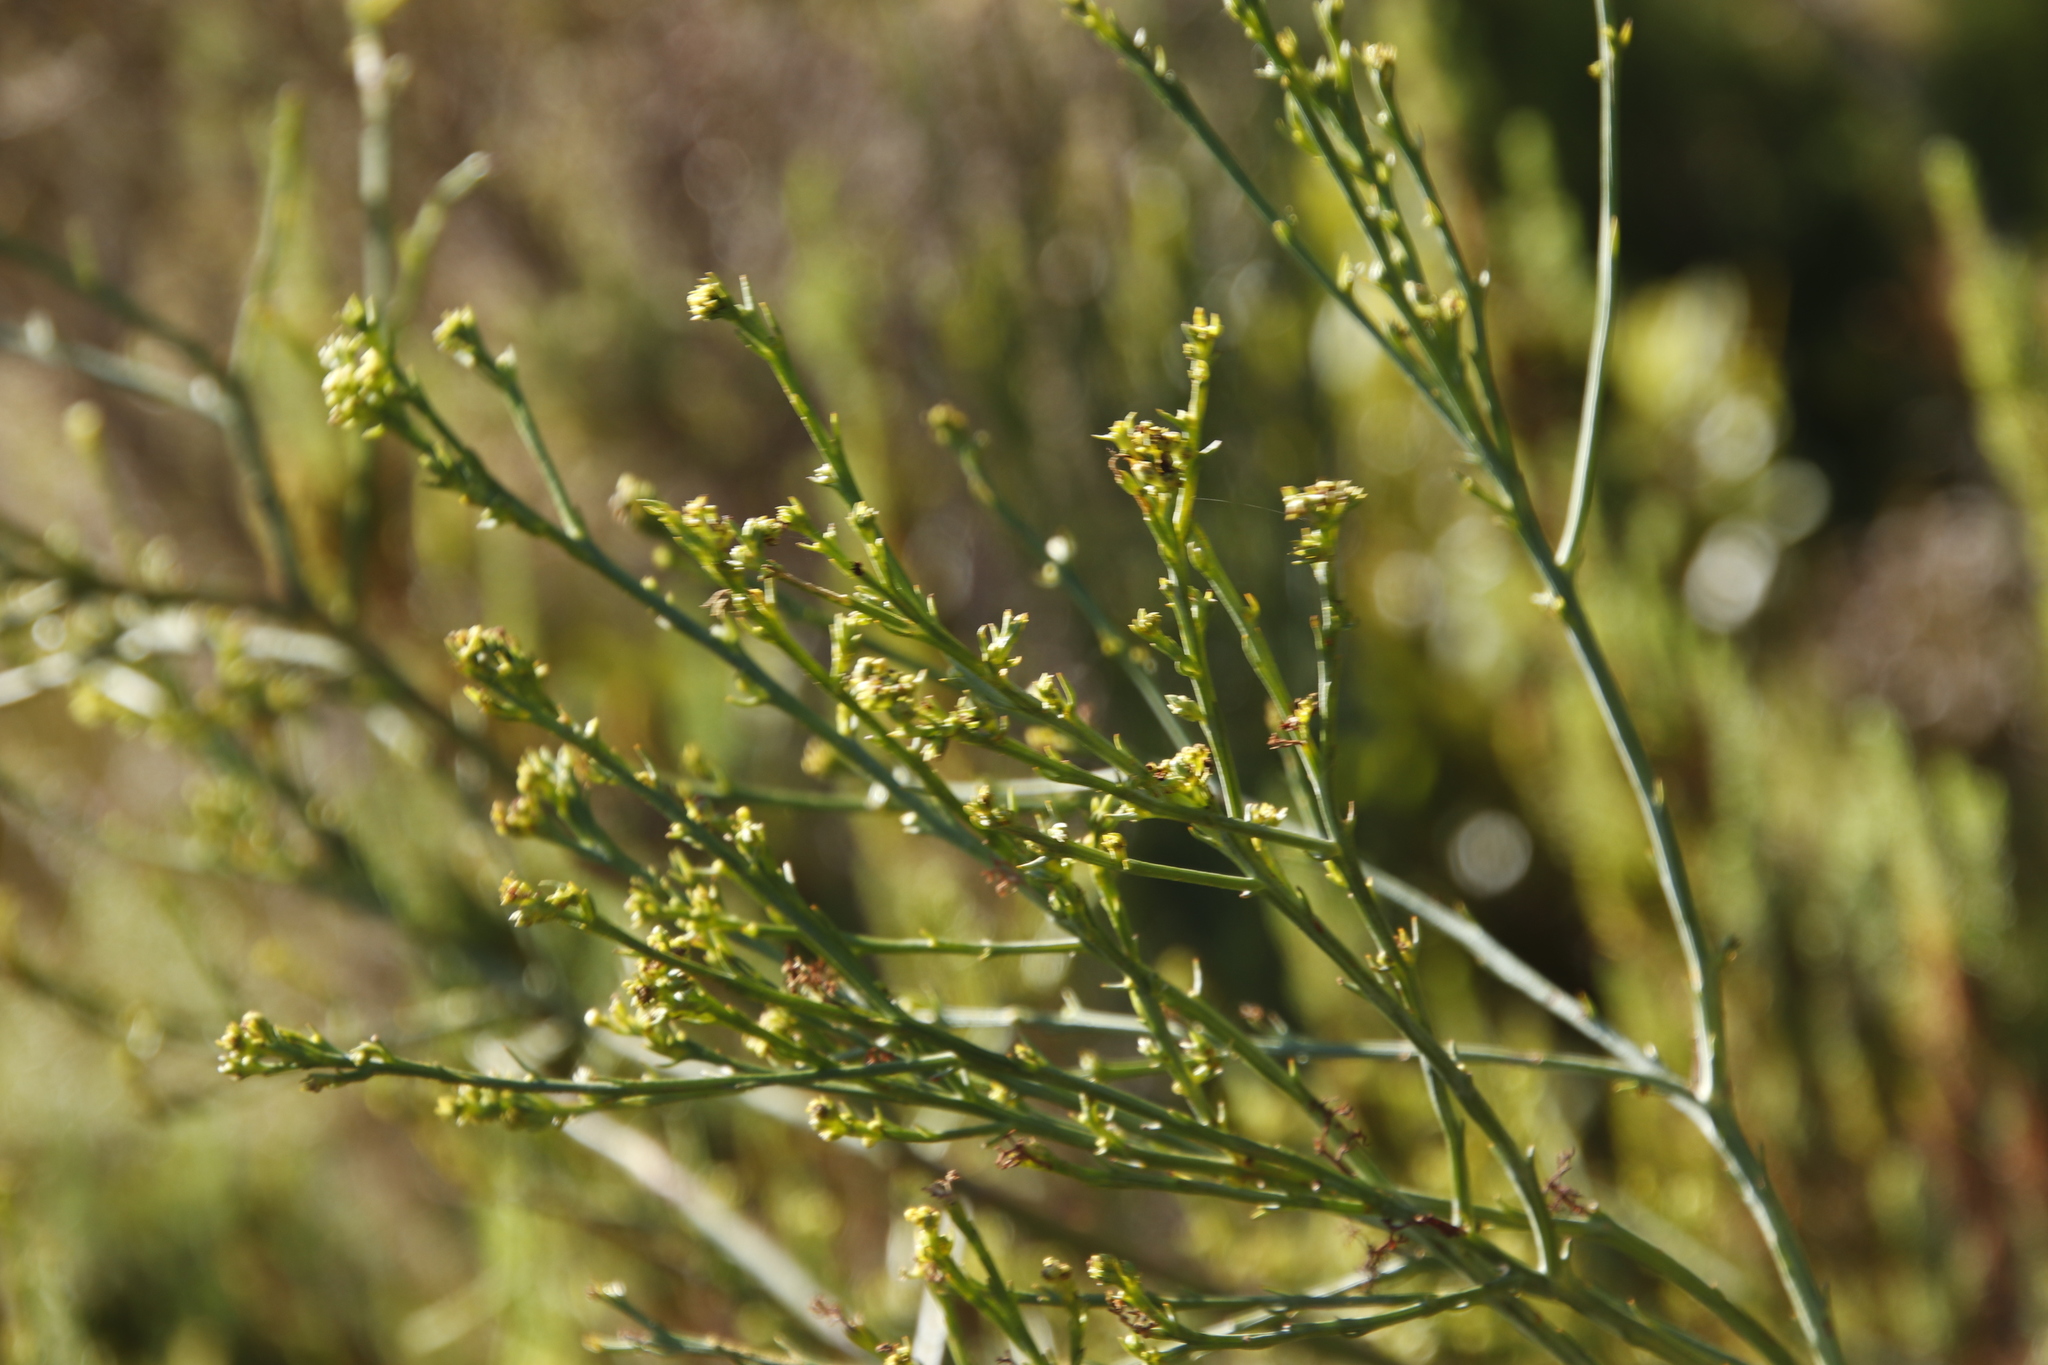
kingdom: Plantae
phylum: Tracheophyta
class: Magnoliopsida
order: Santalales
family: Thesiaceae
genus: Thesium
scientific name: Thesium strictum
